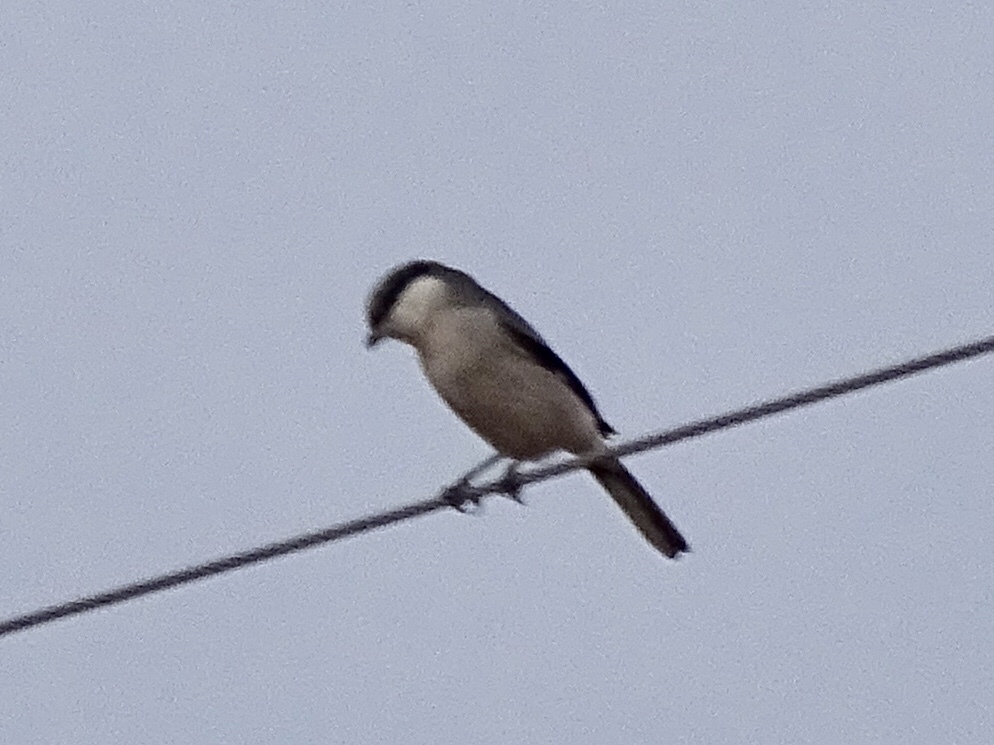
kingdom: Animalia
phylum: Chordata
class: Aves
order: Passeriformes
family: Laniidae
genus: Lanius
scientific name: Lanius ludovicianus
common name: Loggerhead shrike
